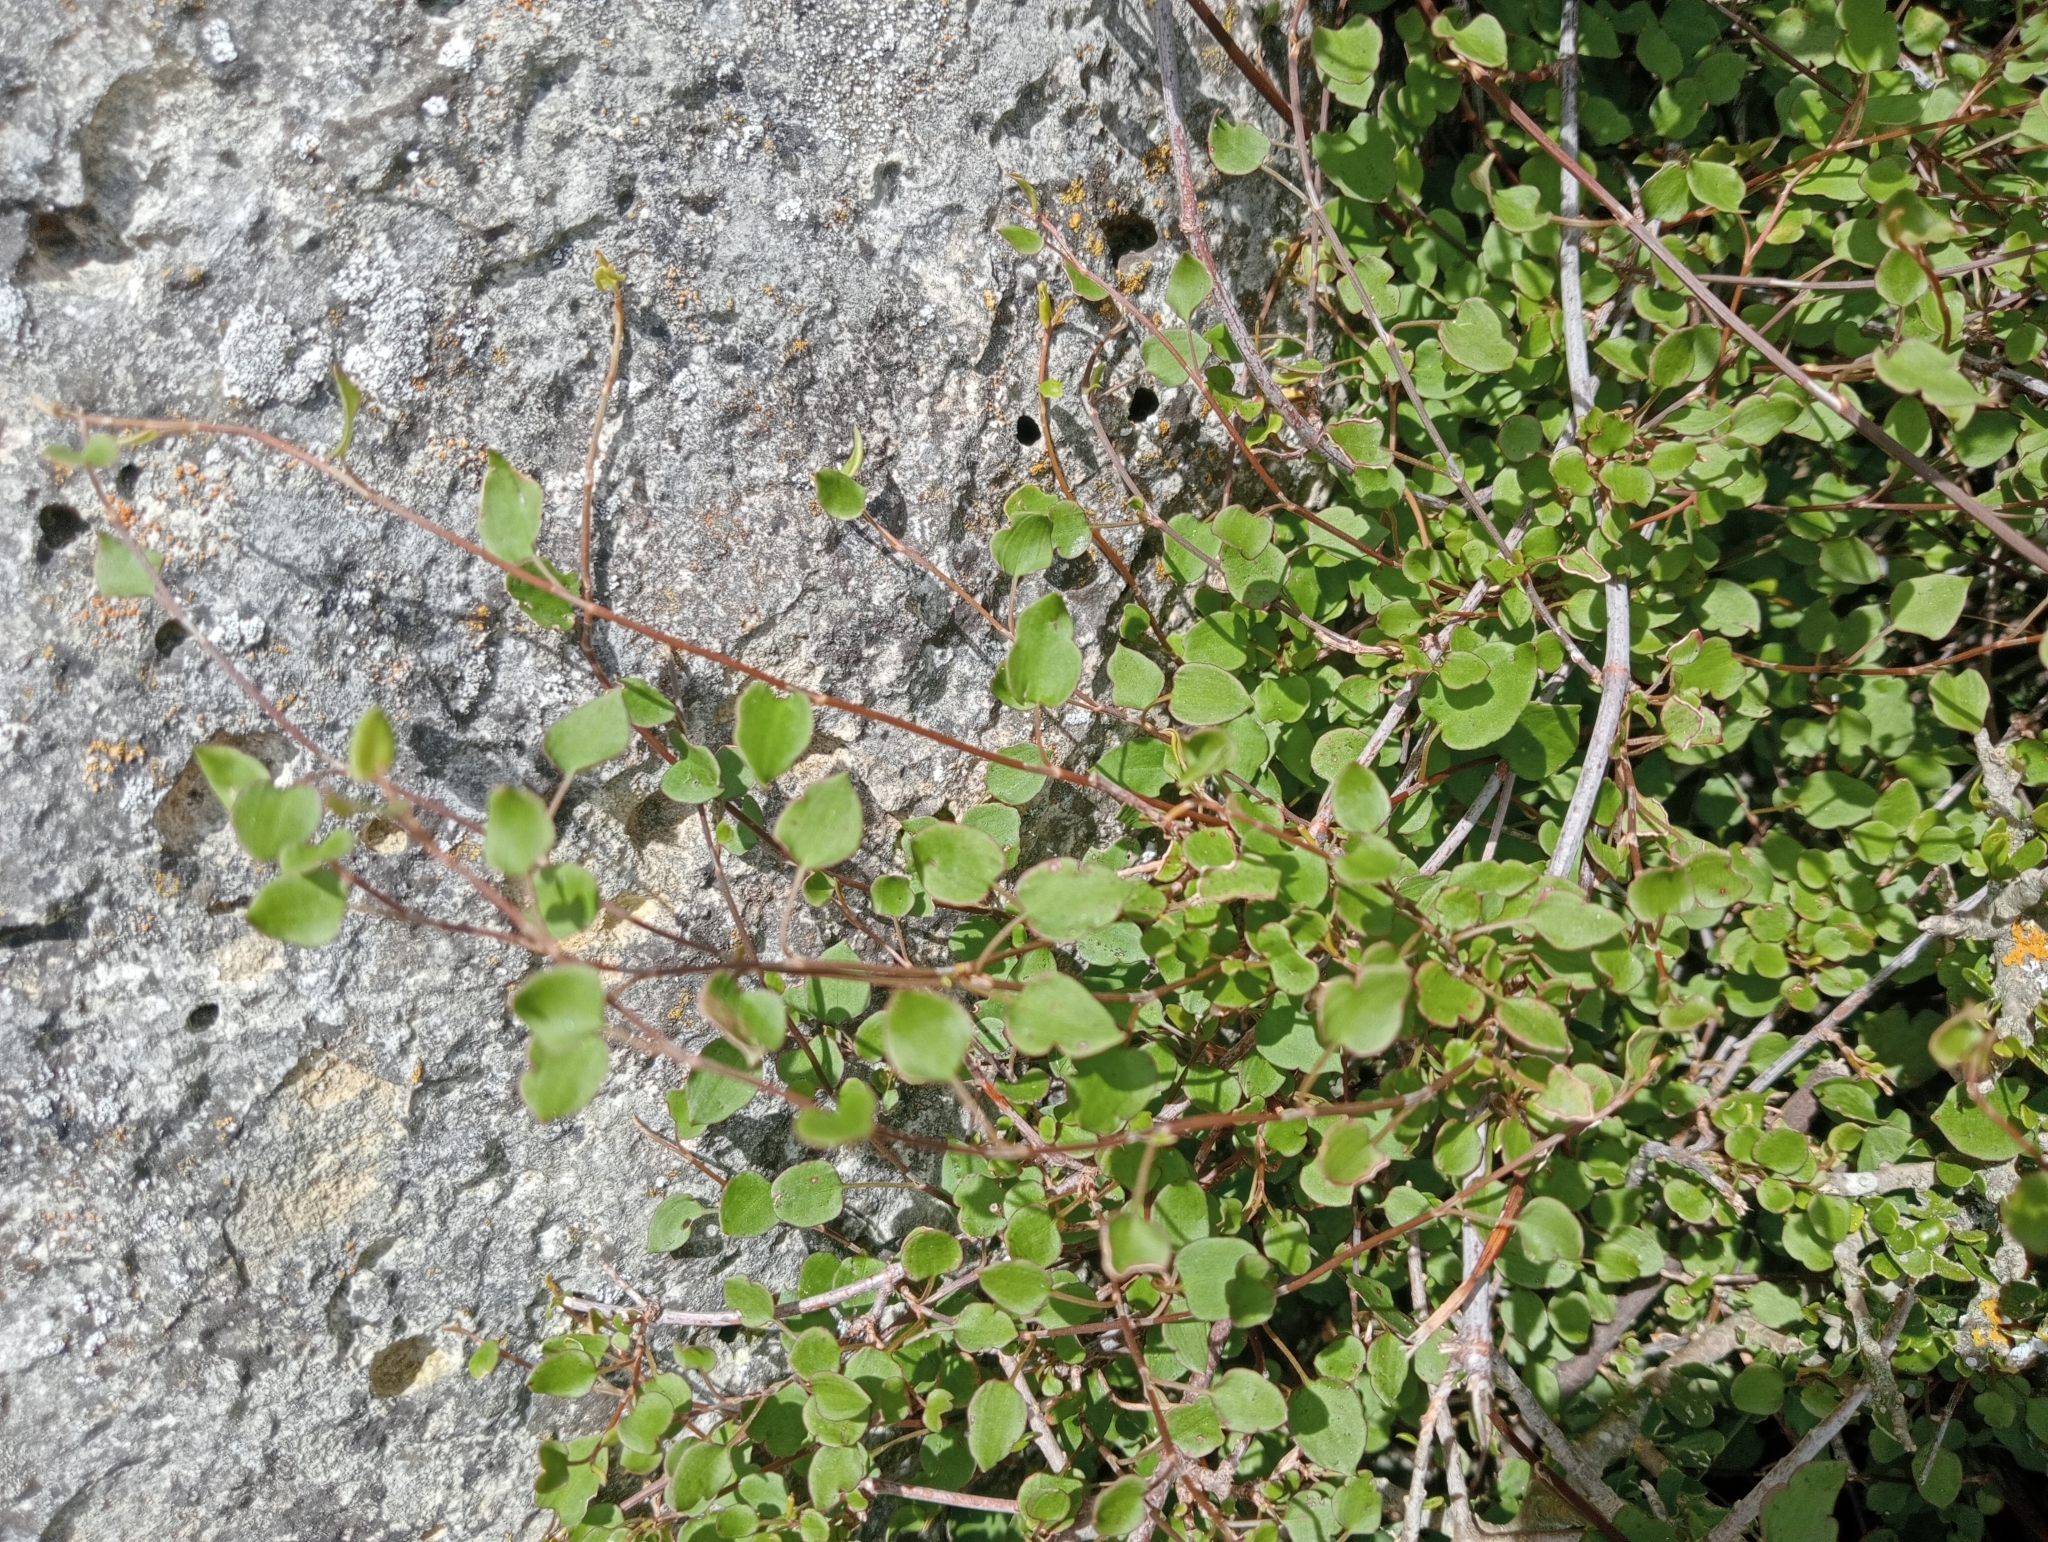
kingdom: Plantae
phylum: Tracheophyta
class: Magnoliopsida
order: Caryophyllales
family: Polygonaceae
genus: Muehlenbeckia
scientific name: Muehlenbeckia complexa
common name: Wireplant
